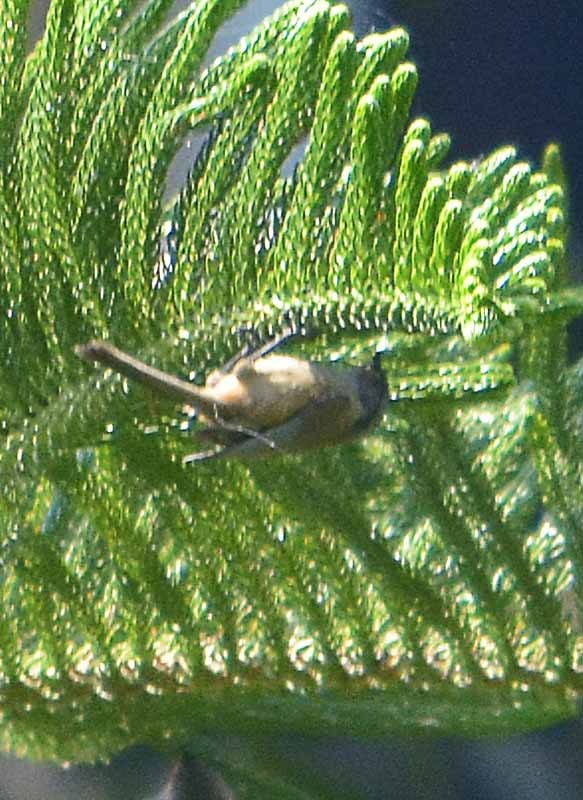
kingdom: Animalia
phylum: Chordata
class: Aves
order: Passeriformes
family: Aegithalidae
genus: Psaltriparus
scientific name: Psaltriparus minimus
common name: American bushtit
